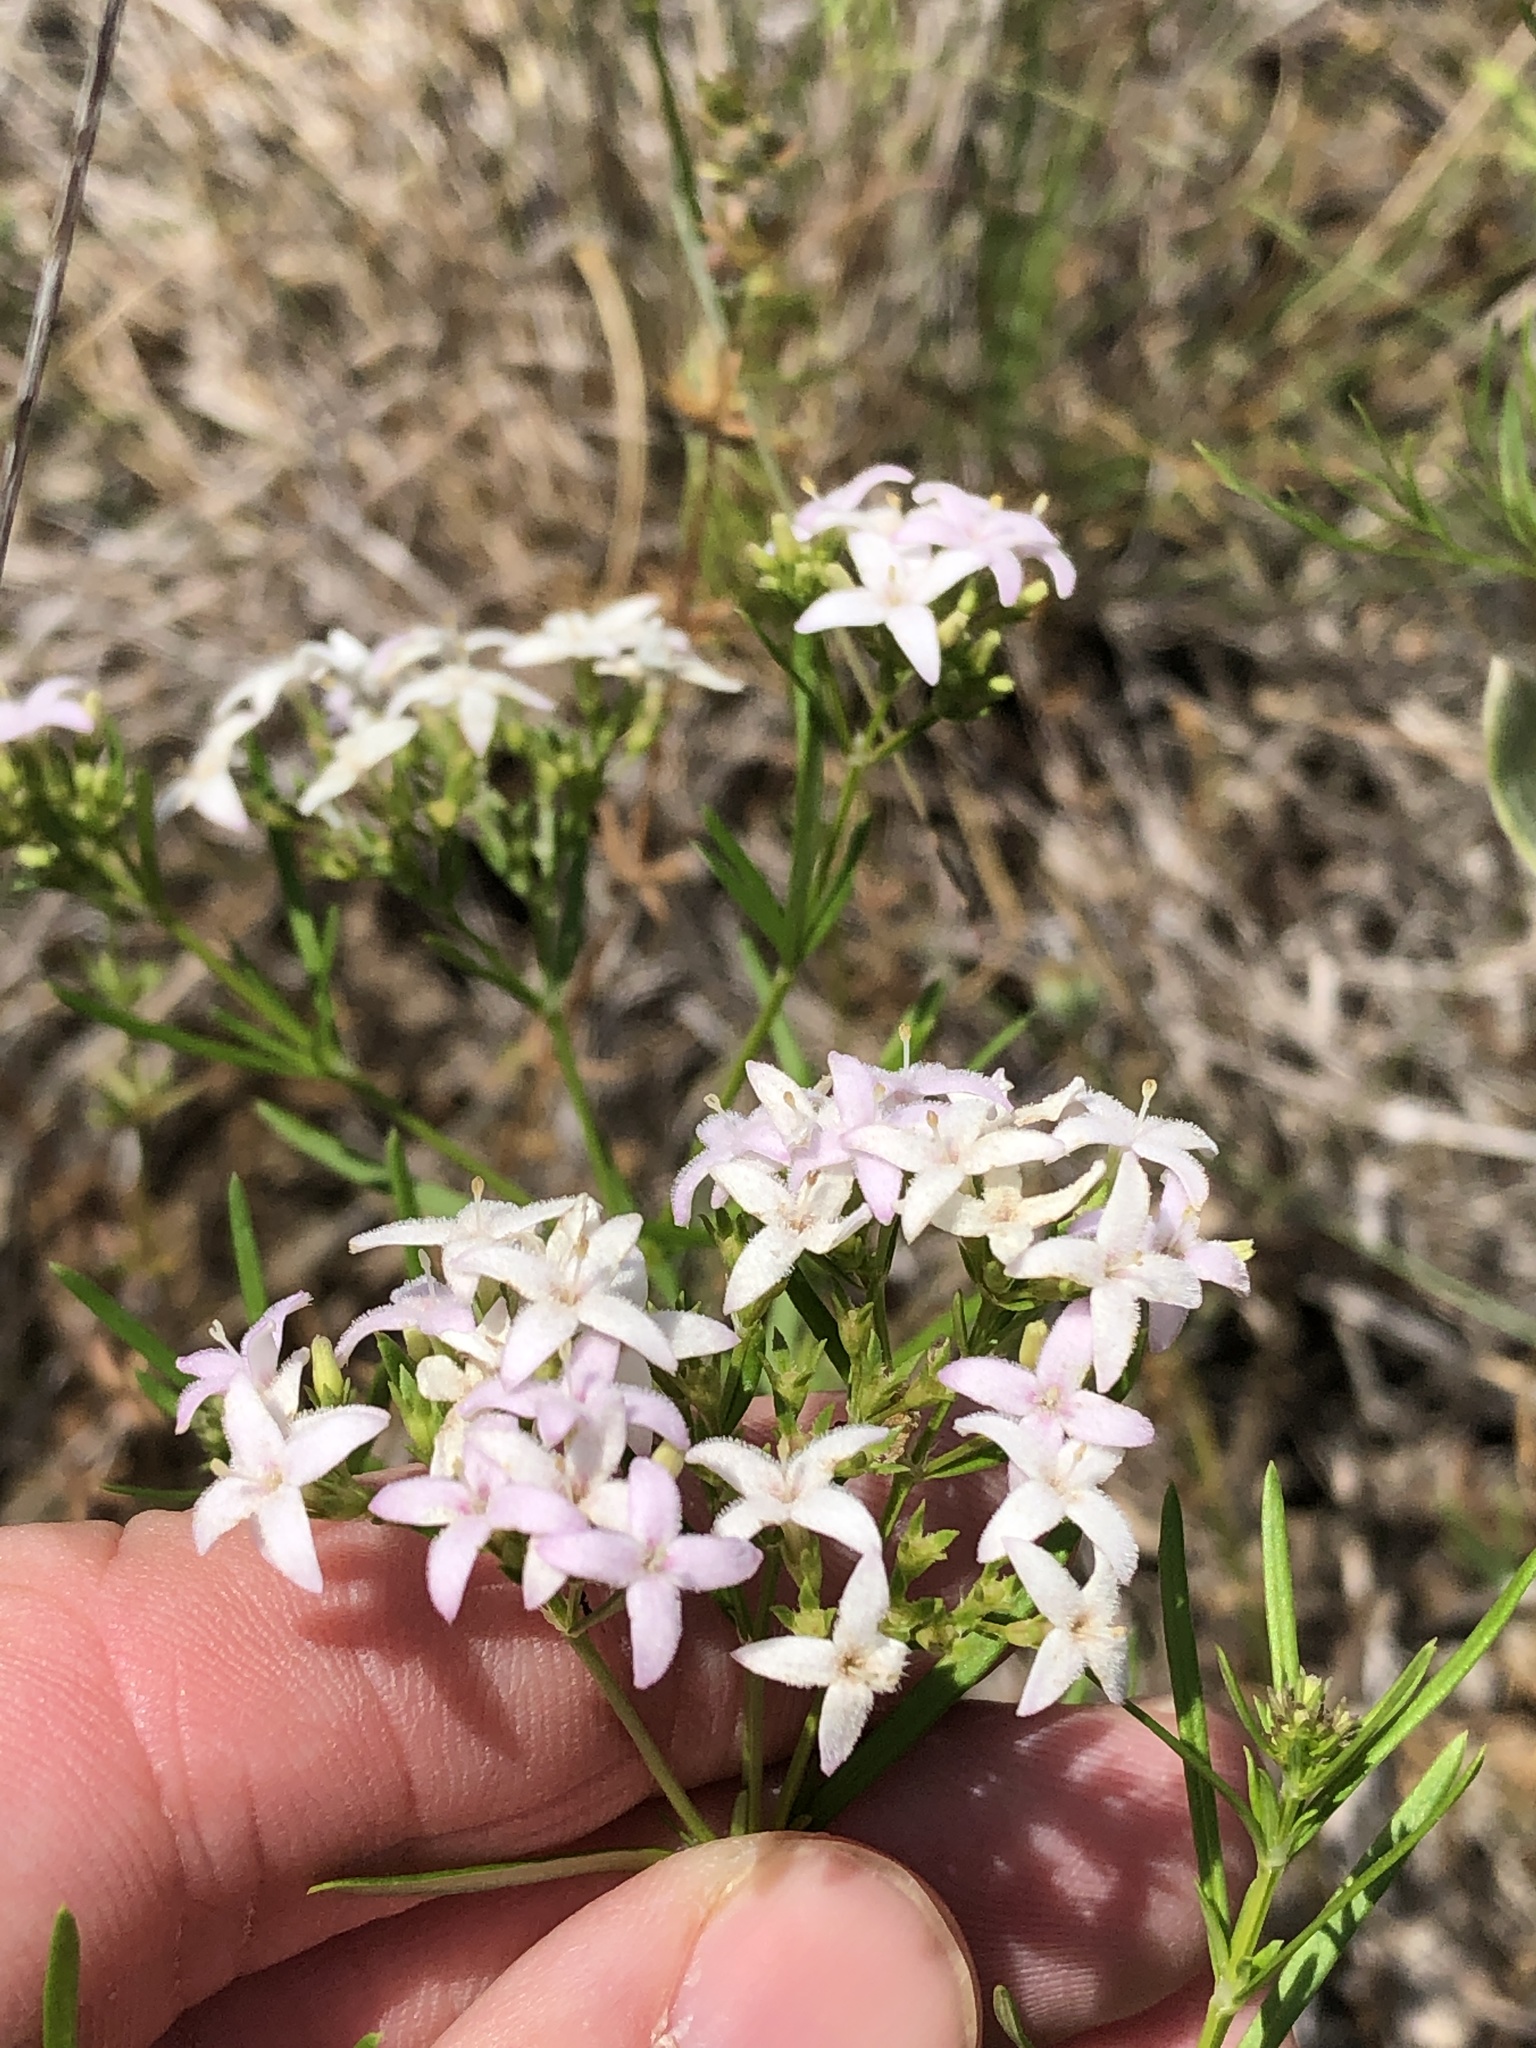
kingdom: Plantae
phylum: Tracheophyta
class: Magnoliopsida
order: Gentianales
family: Rubiaceae
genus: Stenaria
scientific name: Stenaria nigricans
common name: Diamondflowers
